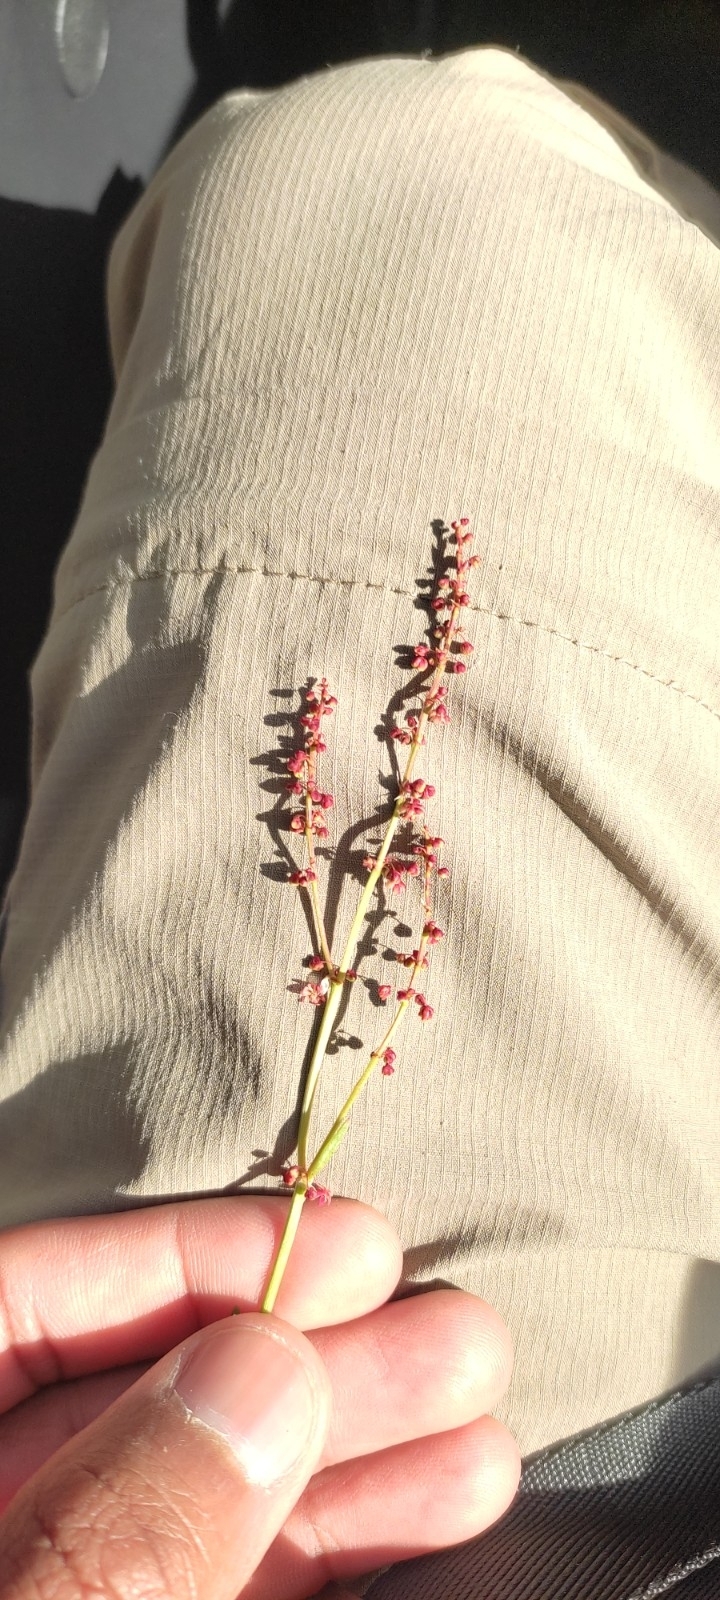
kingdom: Plantae
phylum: Tracheophyta
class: Magnoliopsida
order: Caryophyllales
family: Polygonaceae
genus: Rumex
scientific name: Rumex acetosella
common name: Common sheep sorrel
